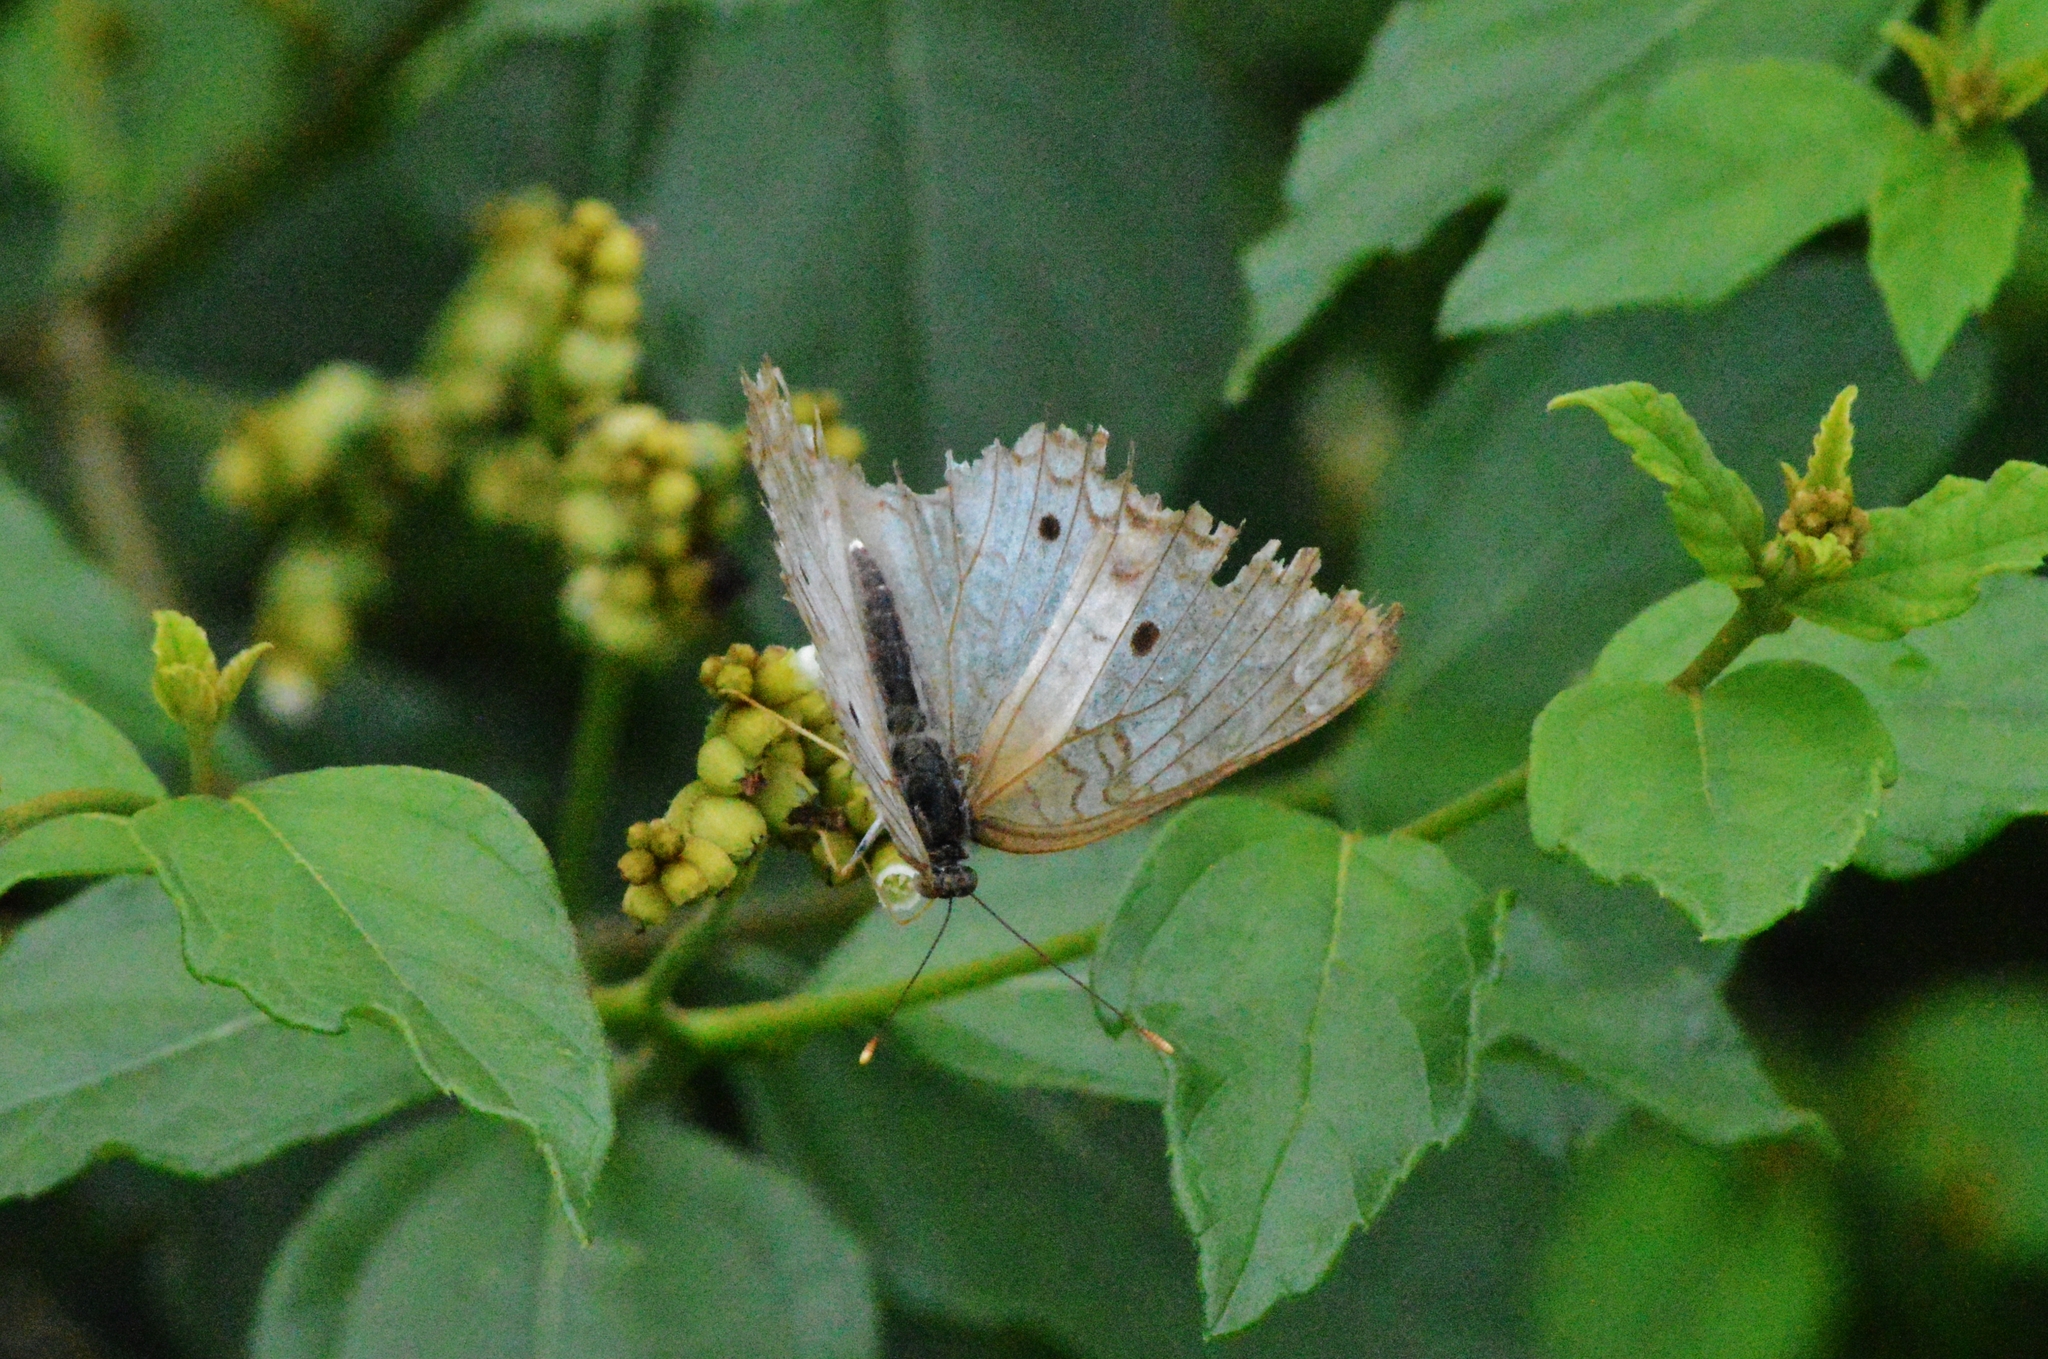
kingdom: Animalia
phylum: Arthropoda
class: Insecta
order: Lepidoptera
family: Nymphalidae
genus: Anartia
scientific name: Anartia jatrophae
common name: White peacock
